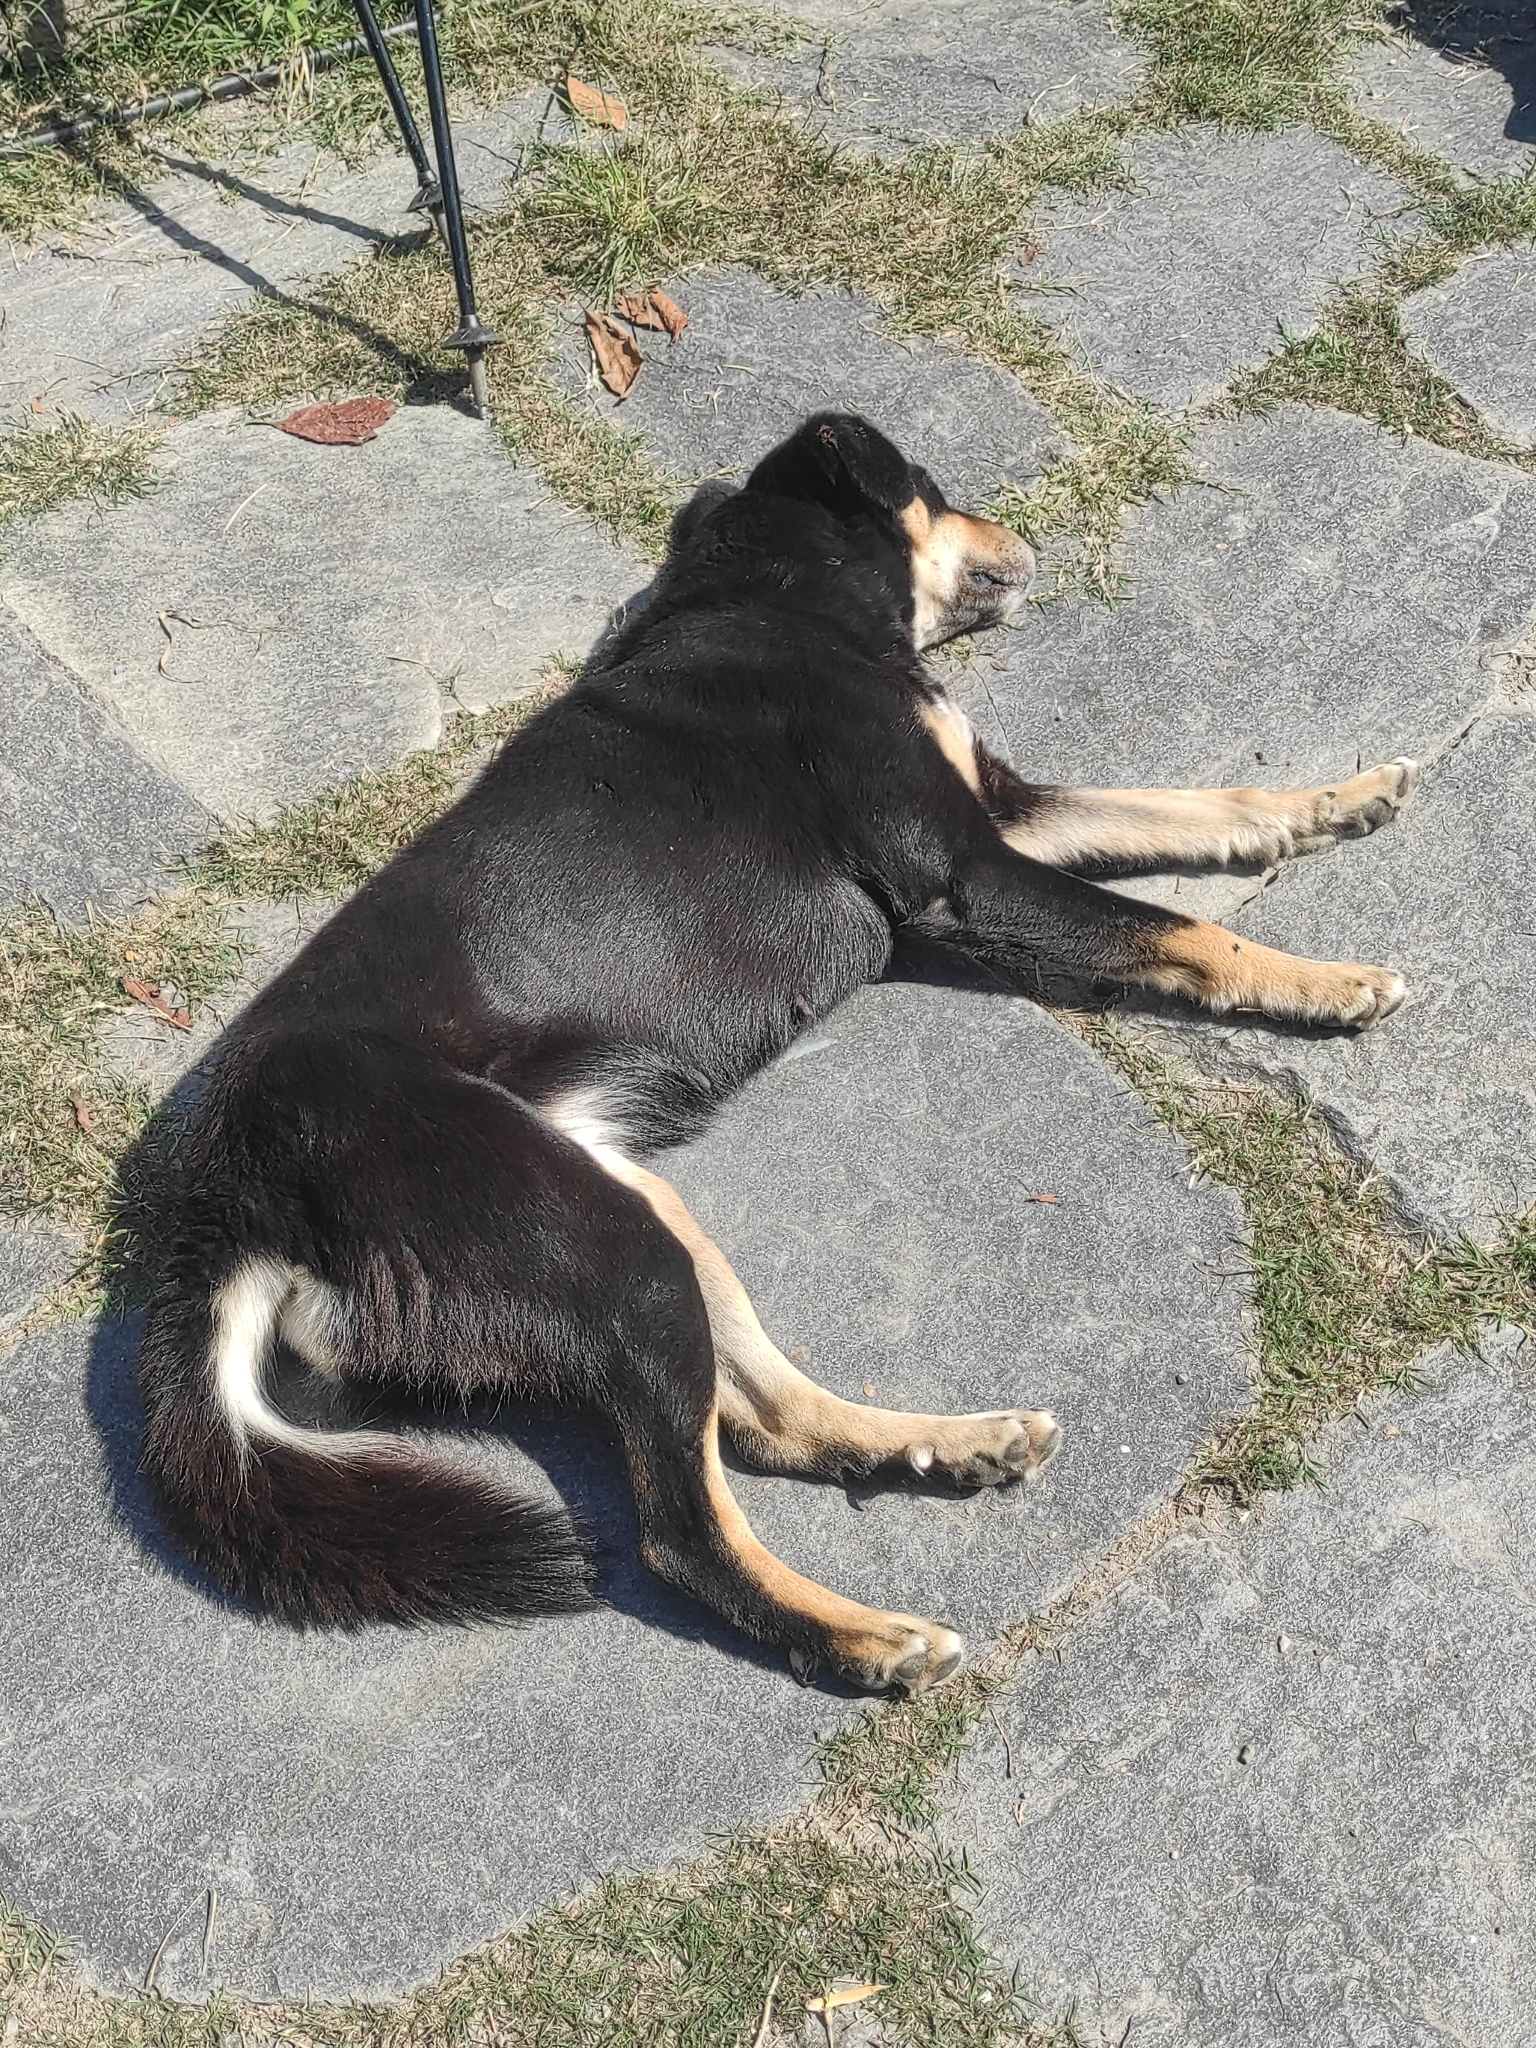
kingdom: Animalia
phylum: Chordata
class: Mammalia
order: Carnivora
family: Canidae
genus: Canis
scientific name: Canis lupus
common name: Gray wolf
